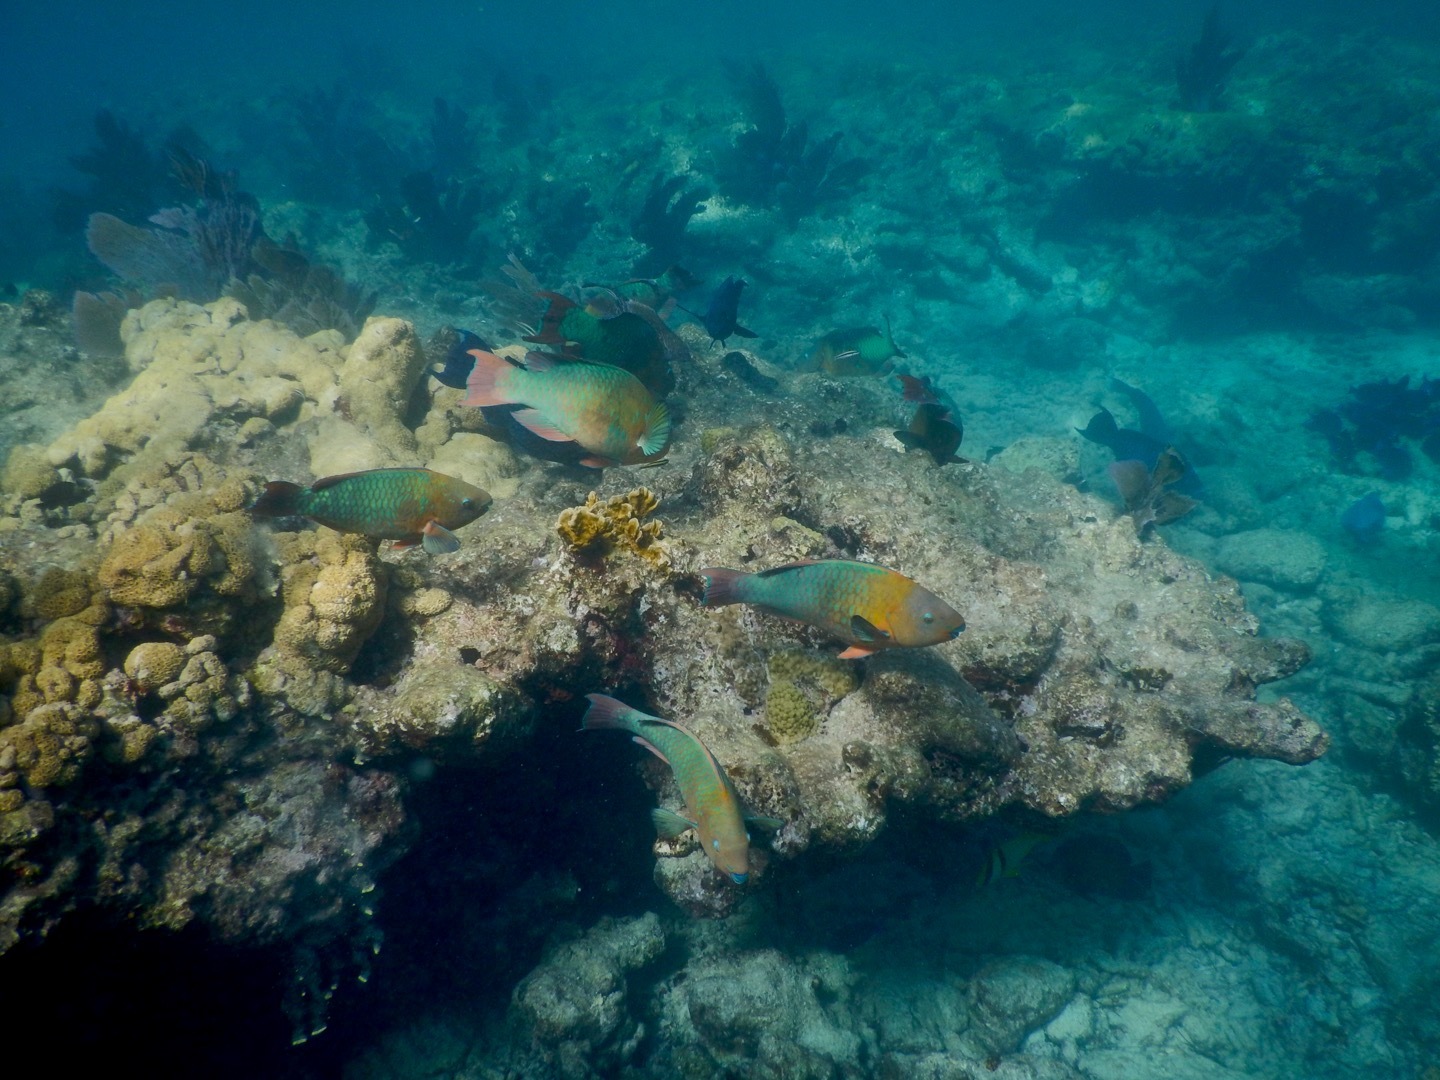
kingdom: Animalia
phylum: Chordata
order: Perciformes
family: Scaridae
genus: Scarus
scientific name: Scarus guacamaia
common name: Rainbow parrotfish
